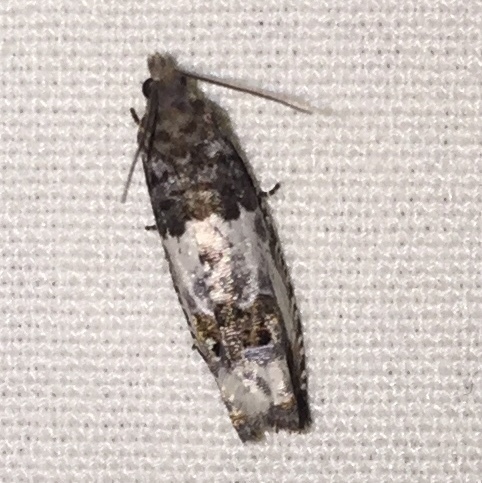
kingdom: Animalia
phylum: Arthropoda
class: Insecta
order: Lepidoptera
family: Tortricidae
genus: Notocelia
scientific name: Notocelia rosaecolana
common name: Common rose bell
